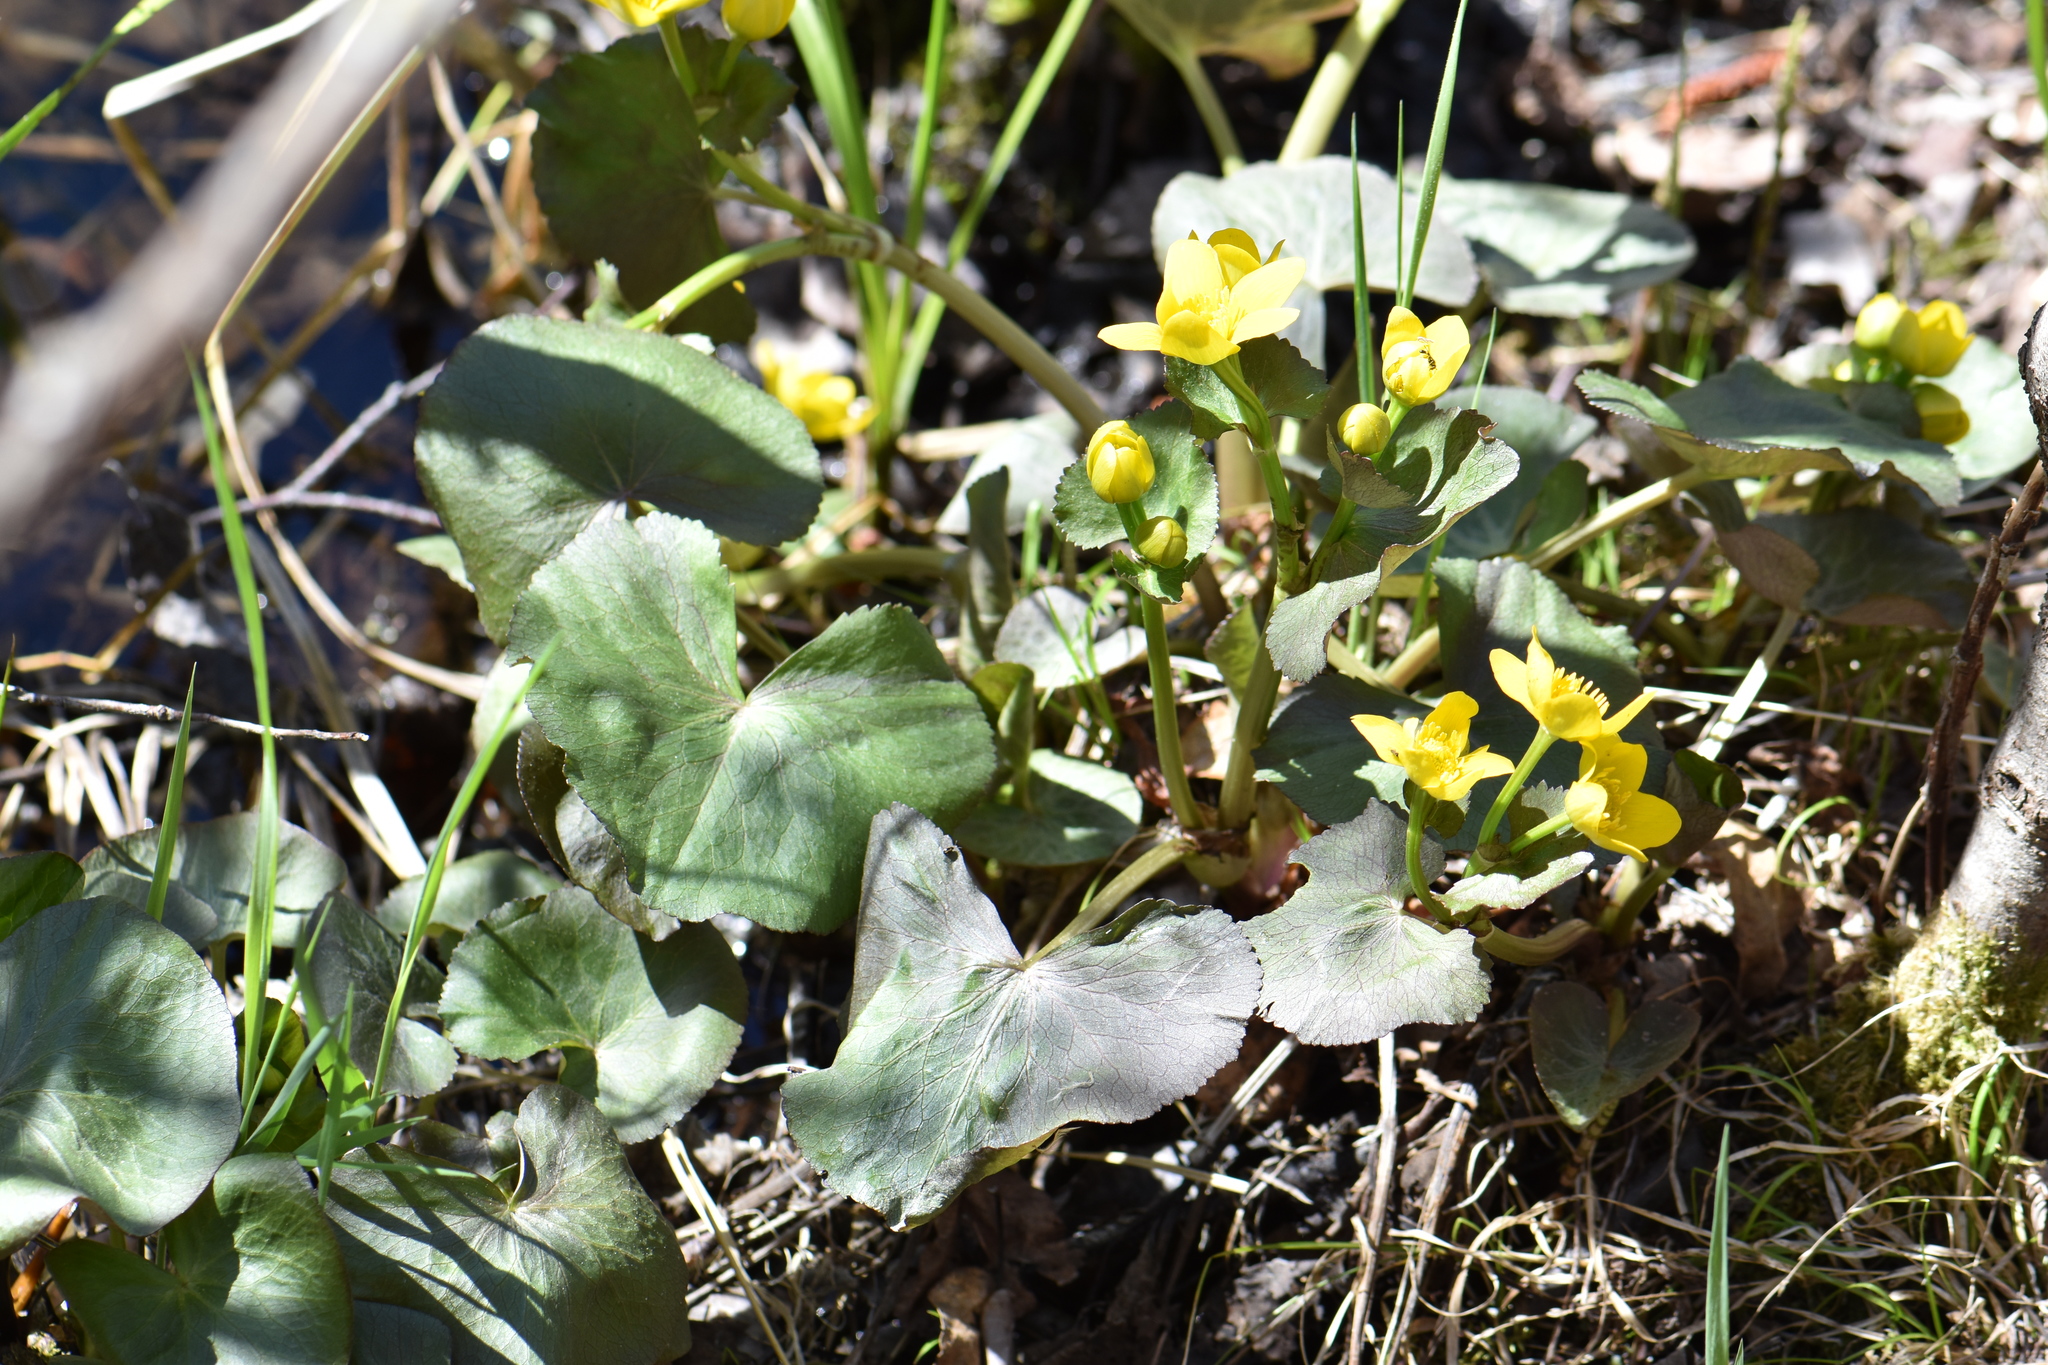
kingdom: Plantae
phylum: Tracheophyta
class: Magnoliopsida
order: Ranunculales
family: Ranunculaceae
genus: Caltha
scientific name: Caltha palustris
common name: Marsh marigold
